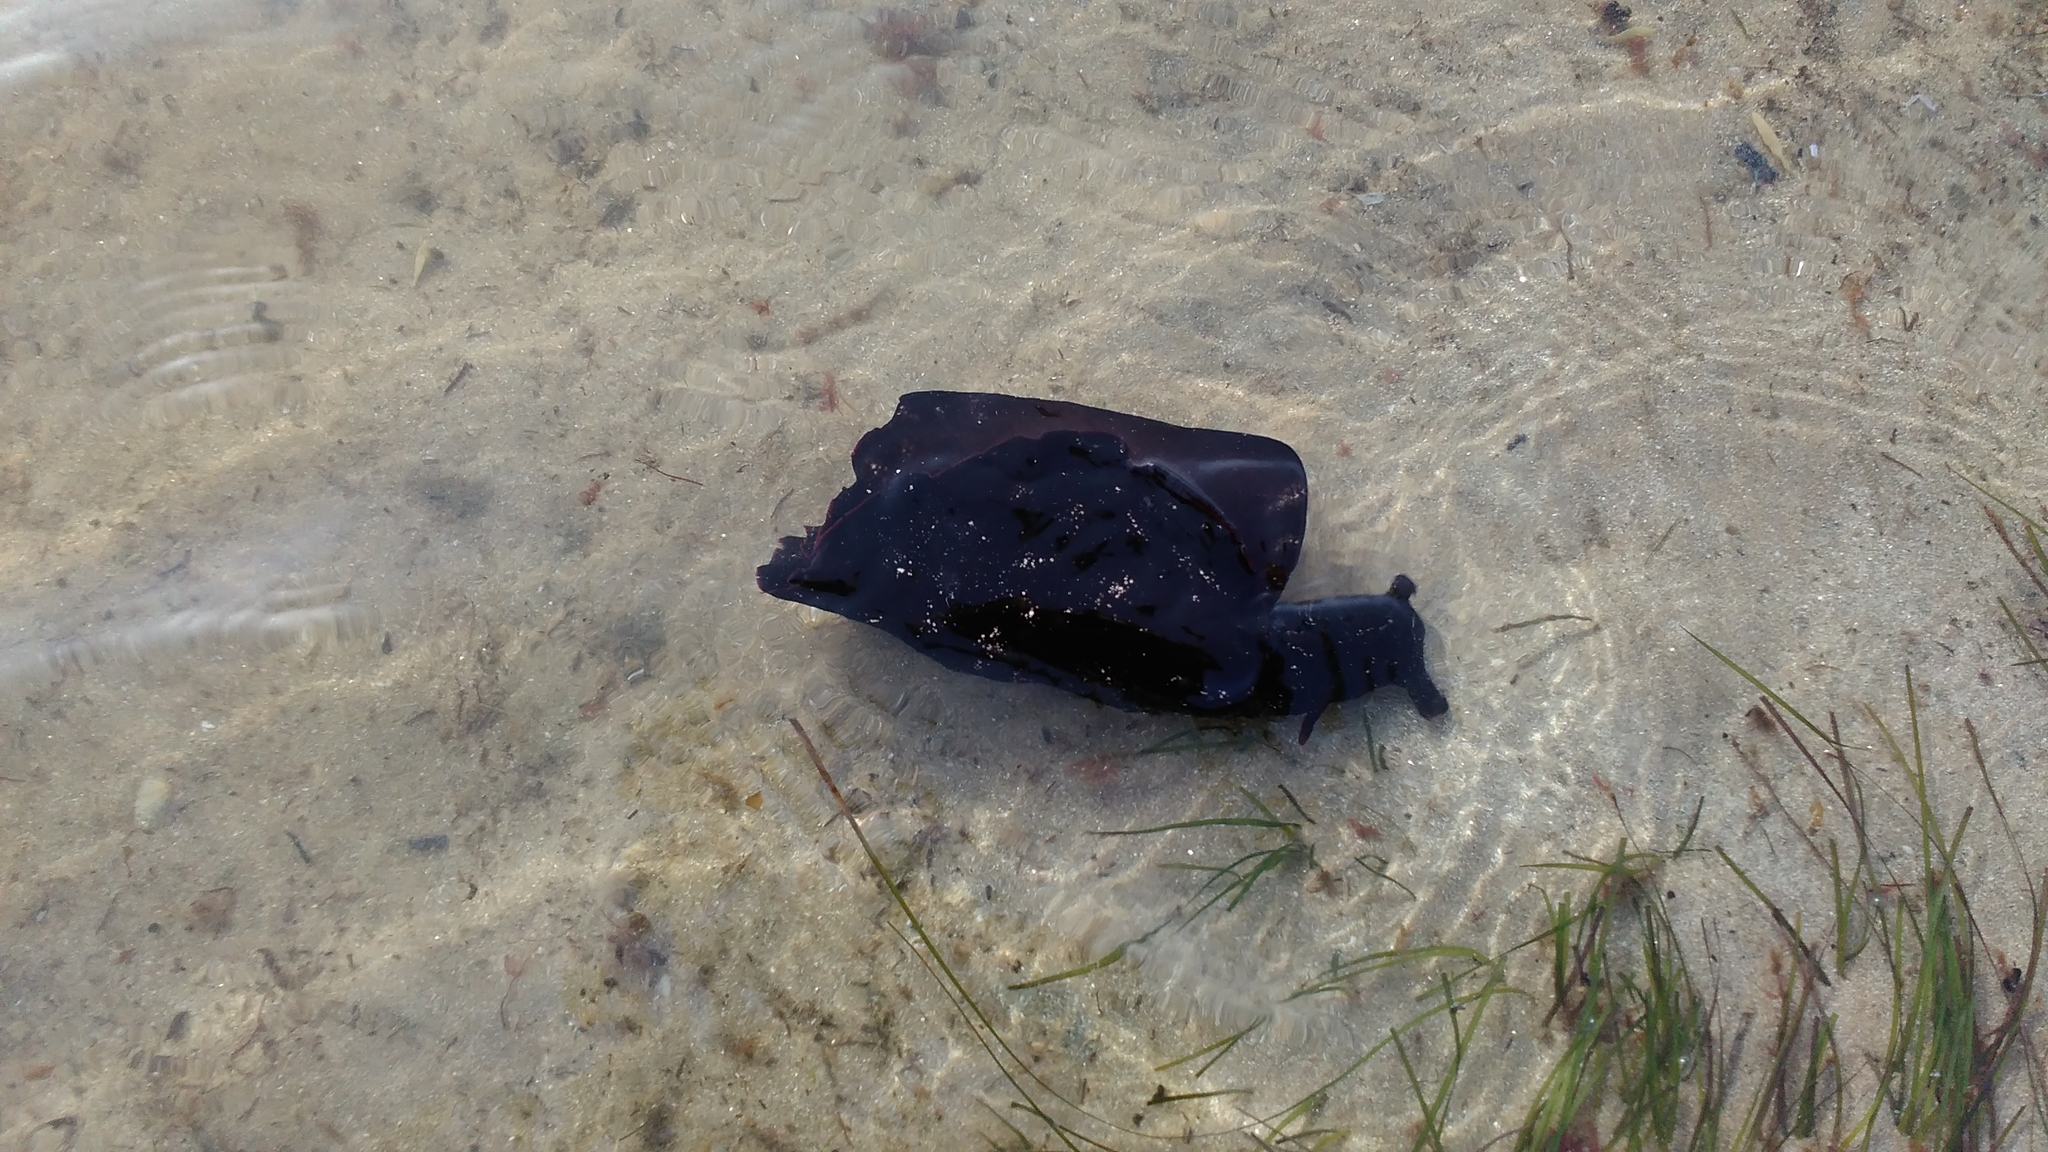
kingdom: Animalia
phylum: Mollusca
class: Gastropoda
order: Aplysiida
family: Aplysiidae
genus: Aplysia
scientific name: Aplysia fasciata
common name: Banded sea hare
